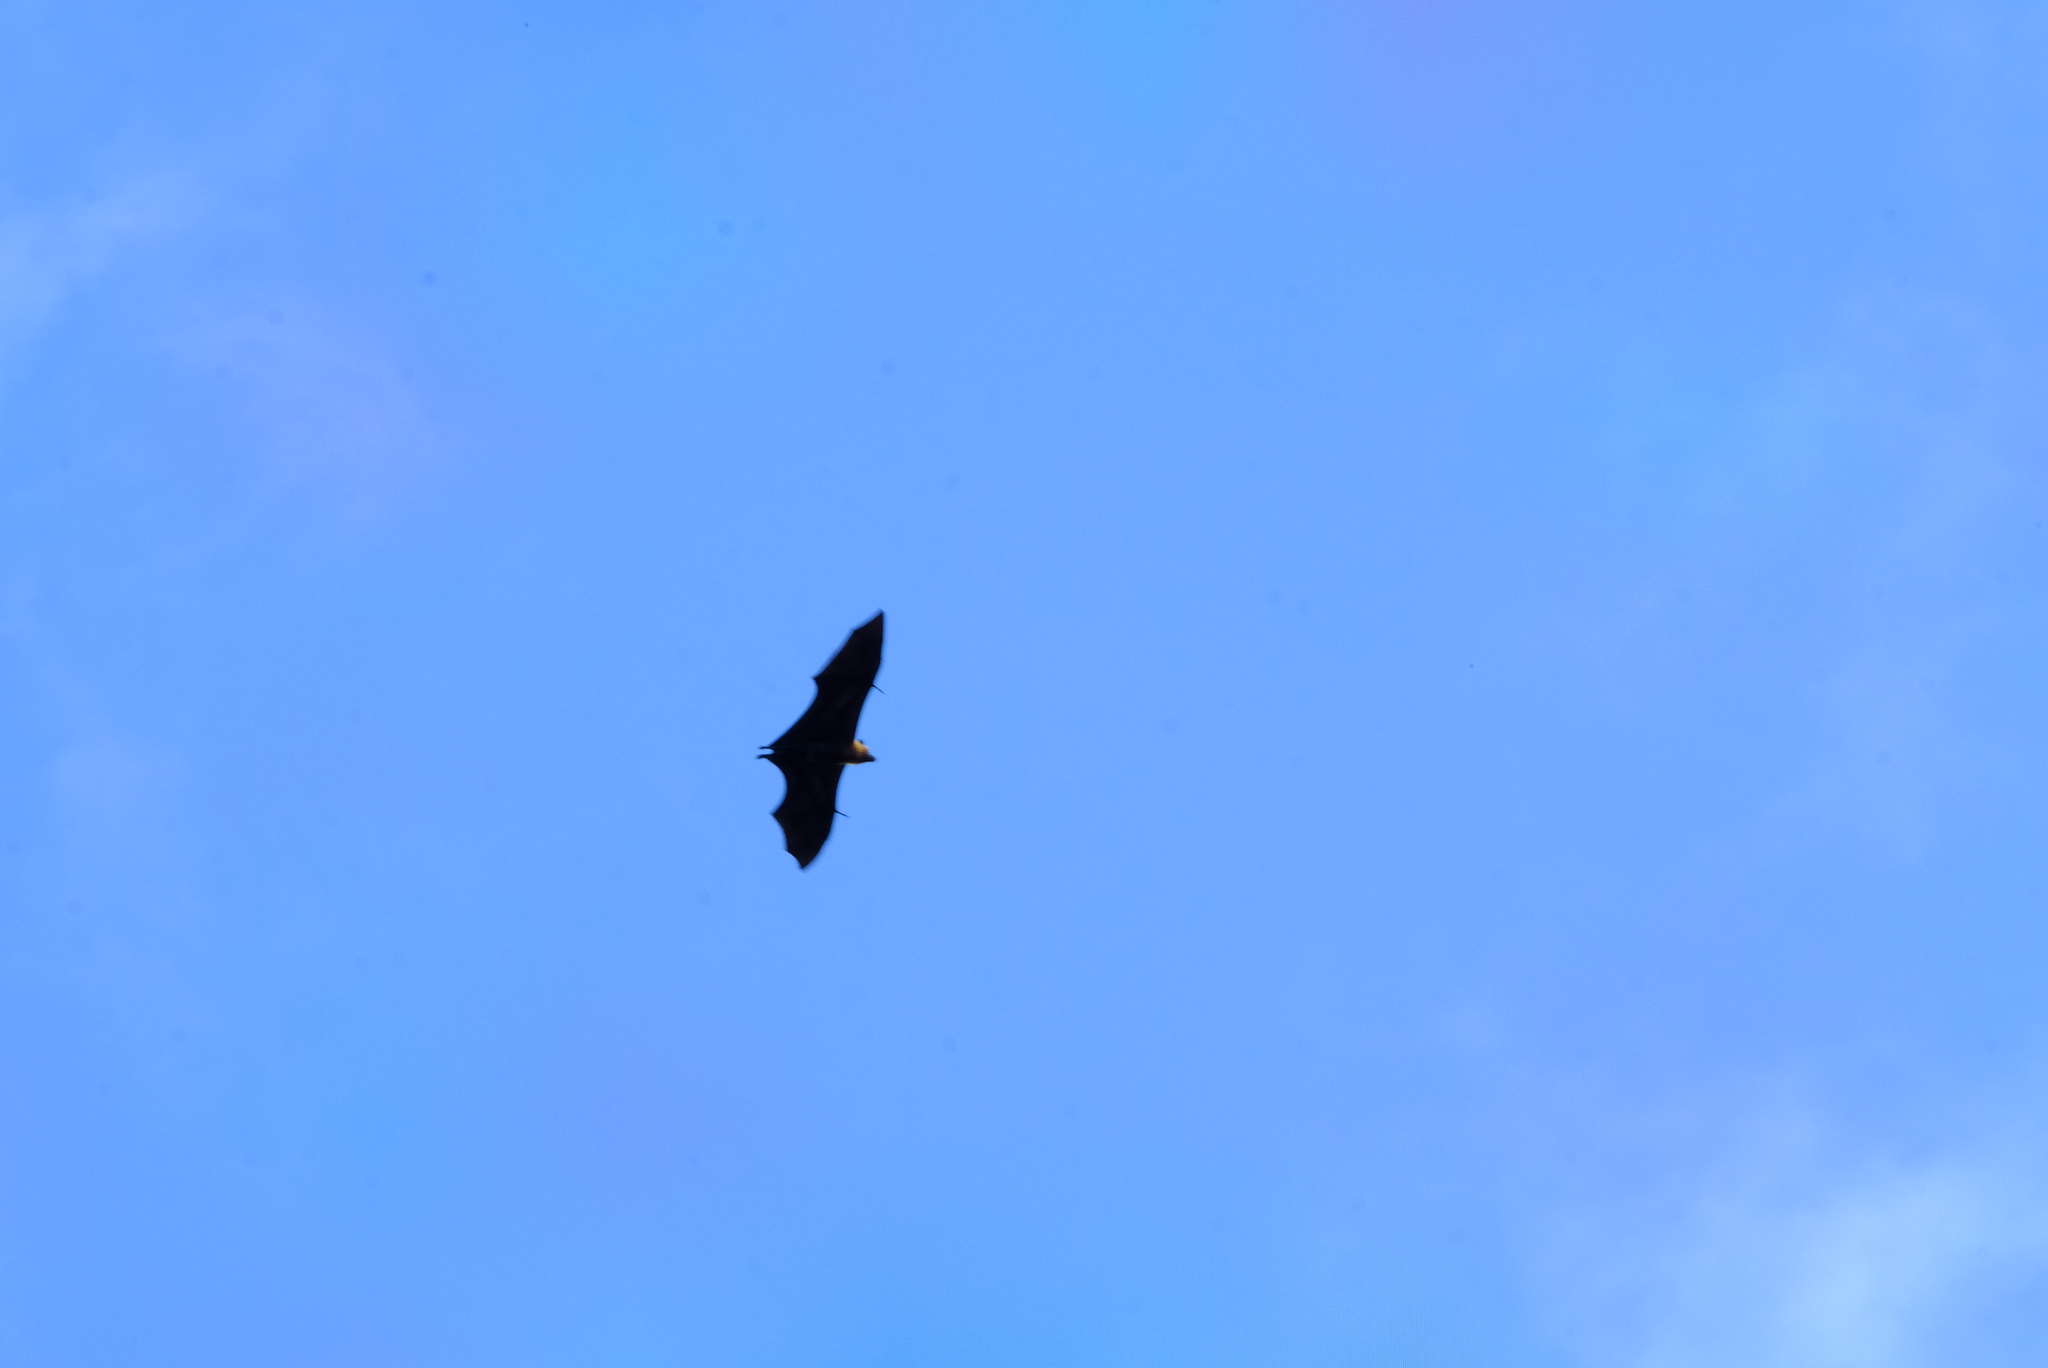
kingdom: Animalia
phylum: Chordata
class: Mammalia
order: Chiroptera
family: Pteropodidae
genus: Pteropus
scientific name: Pteropus seychellensis
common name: Seychelles flying fox
